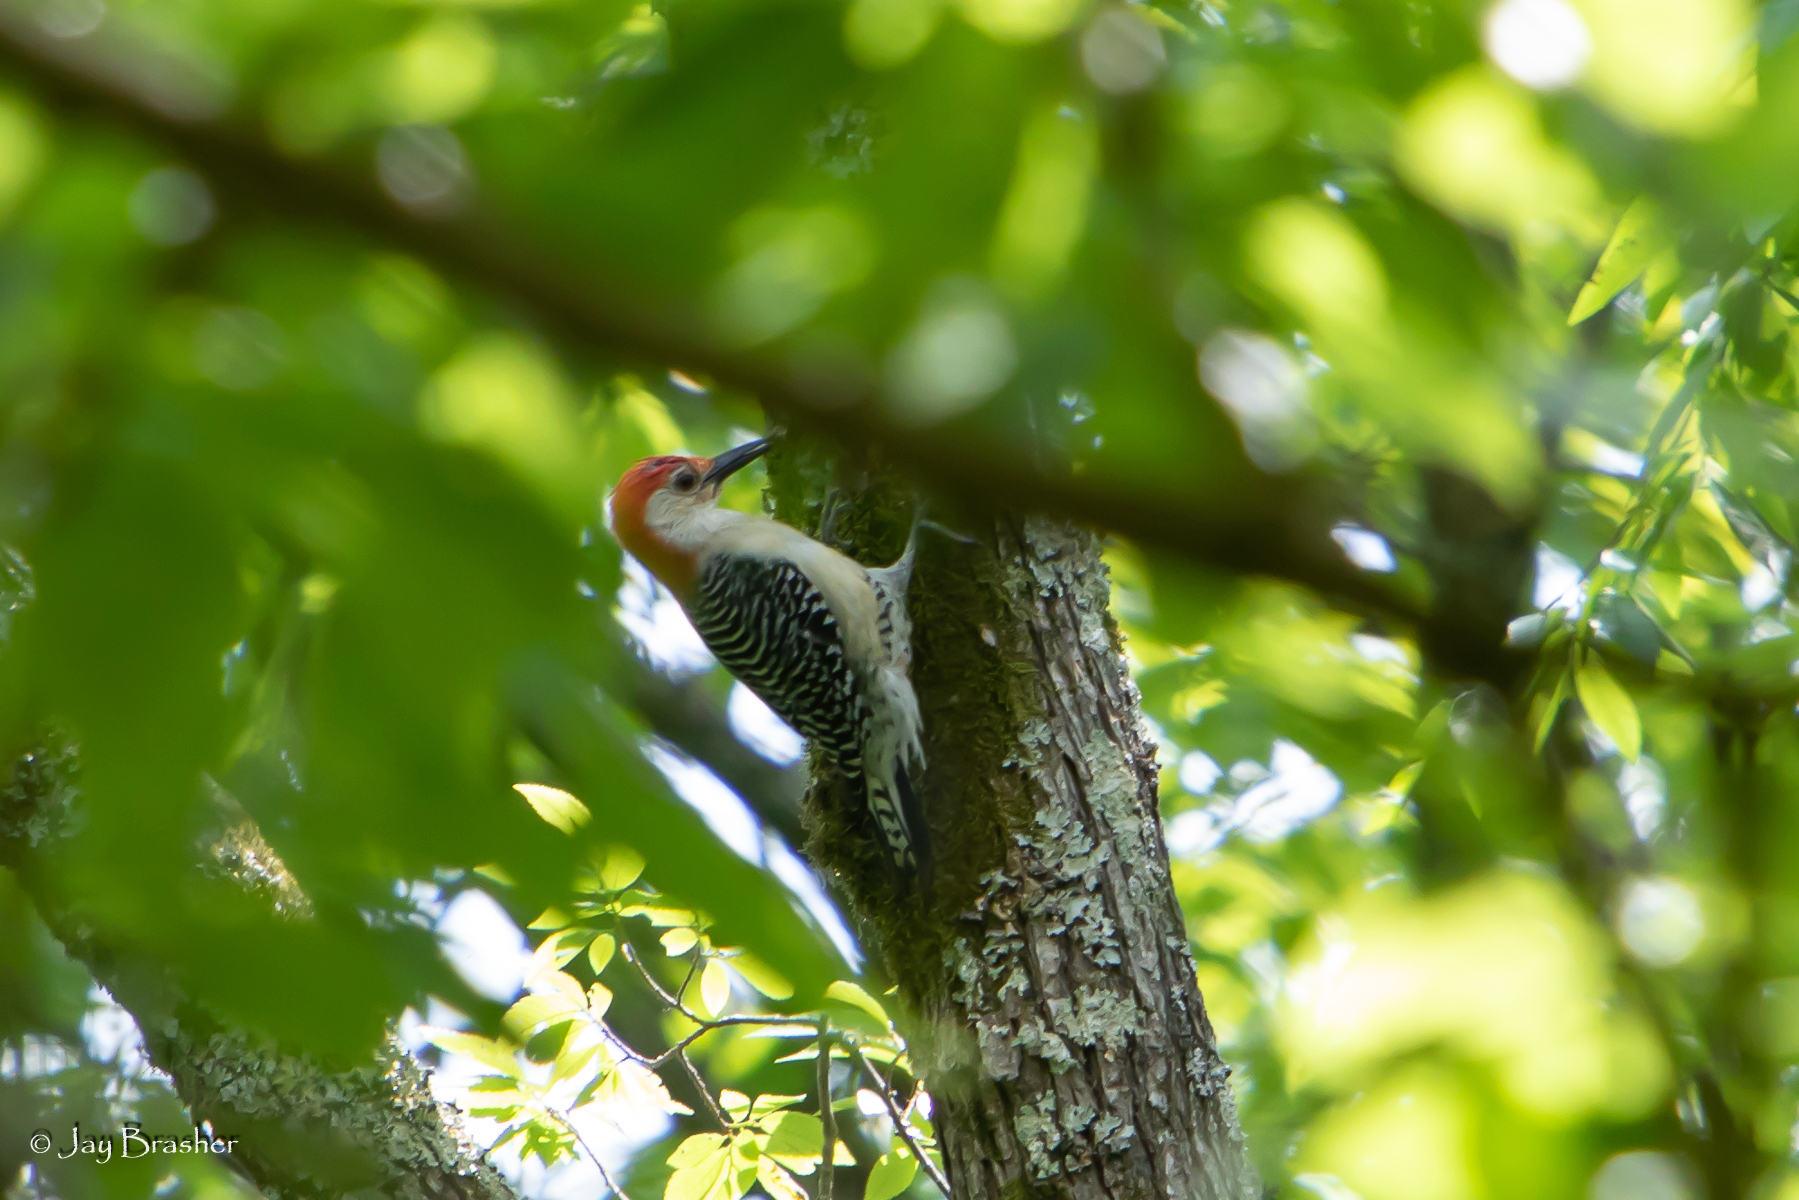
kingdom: Animalia
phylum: Chordata
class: Aves
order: Piciformes
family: Picidae
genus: Melanerpes
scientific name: Melanerpes carolinus
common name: Red-bellied woodpecker
